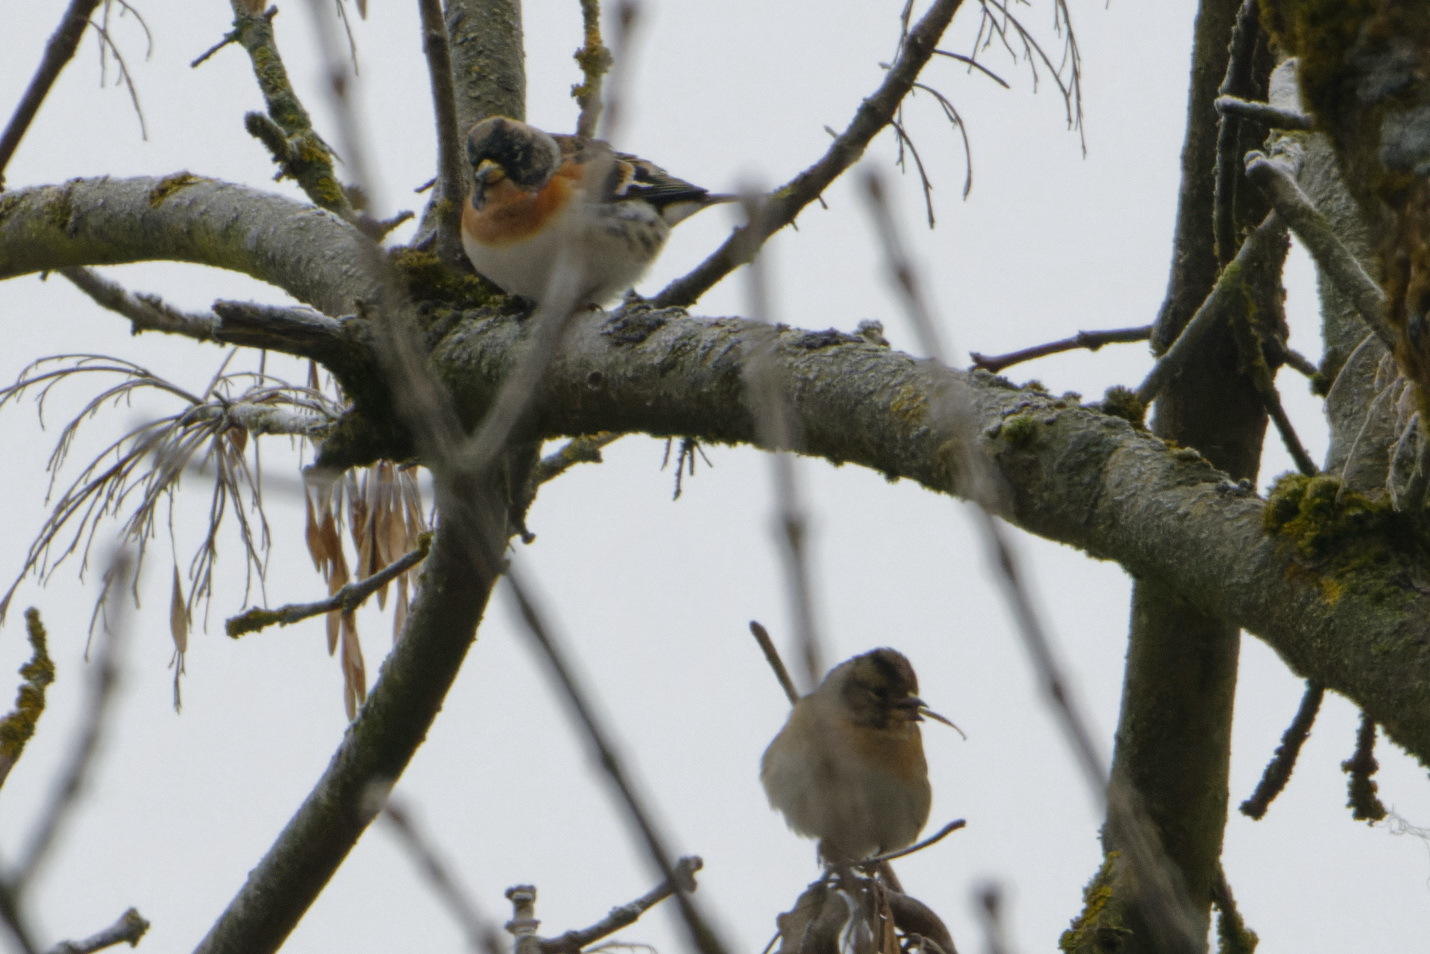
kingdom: Animalia
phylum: Chordata
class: Aves
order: Passeriformes
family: Fringillidae
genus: Fringilla
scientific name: Fringilla montifringilla
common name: Brambling
